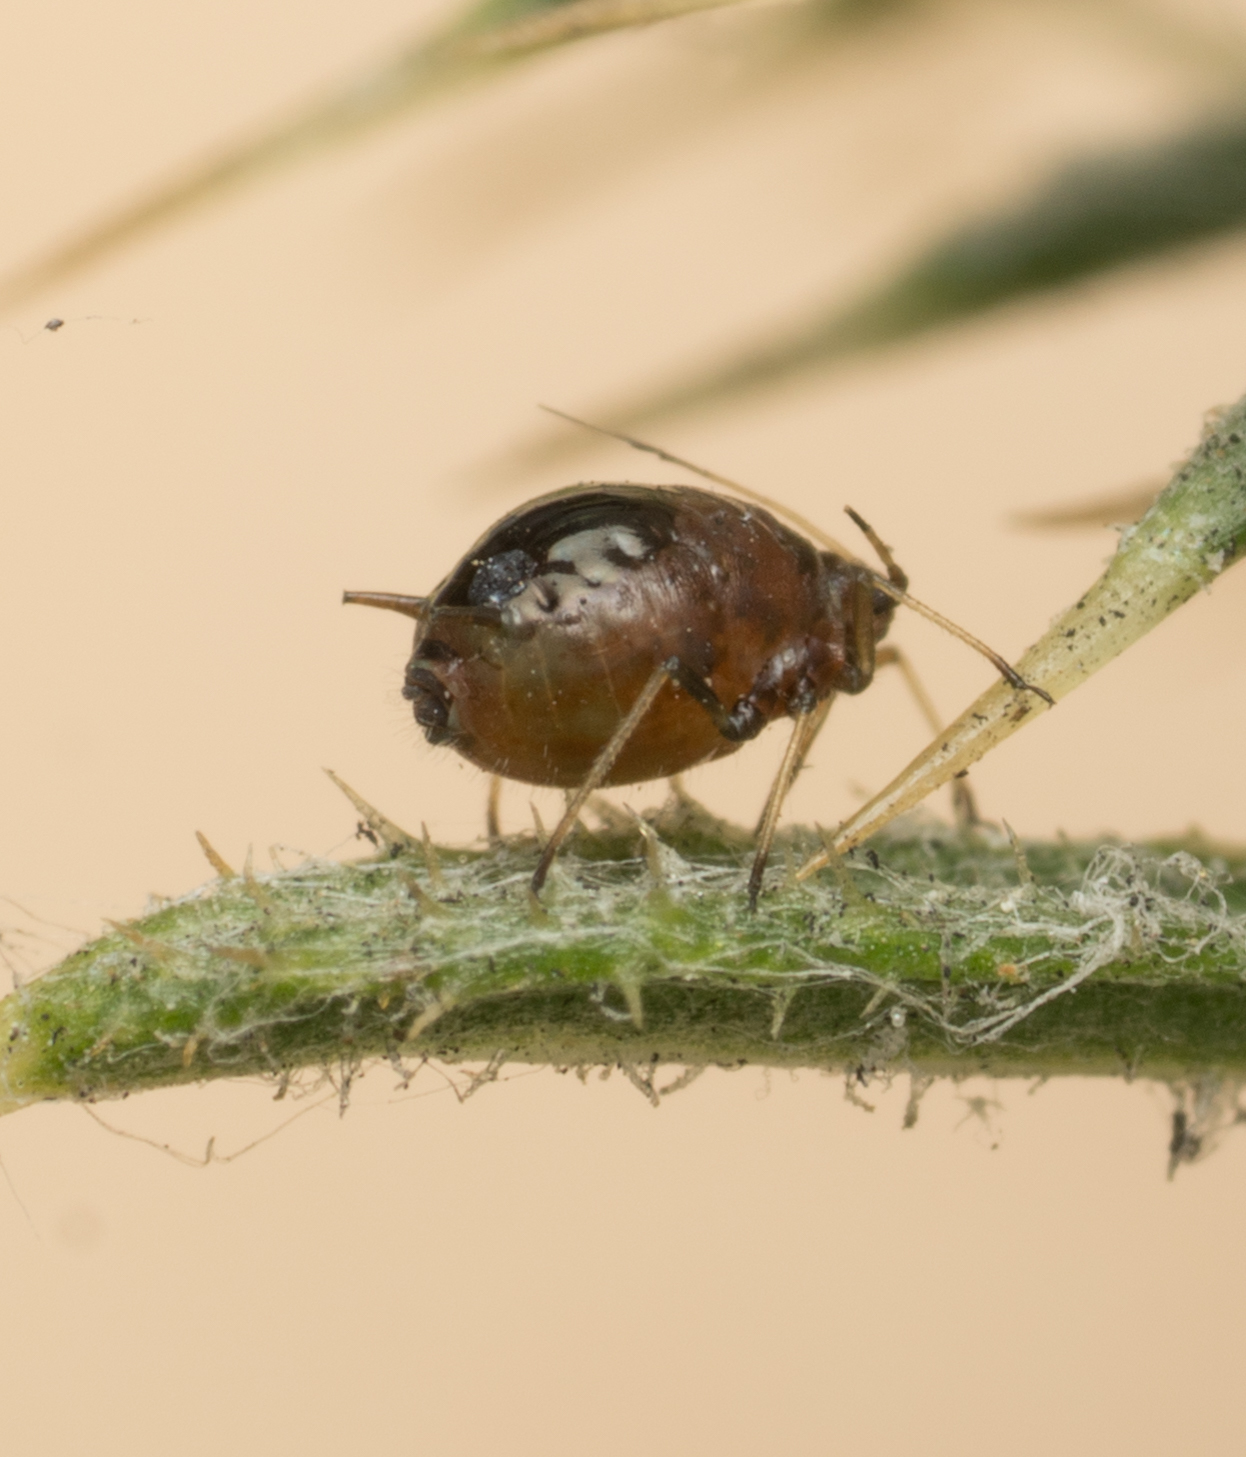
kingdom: Animalia
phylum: Arthropoda
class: Insecta
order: Hemiptera
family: Aphididae
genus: Brachycaudus
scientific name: Brachycaudus cardui
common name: Thistle aphid
